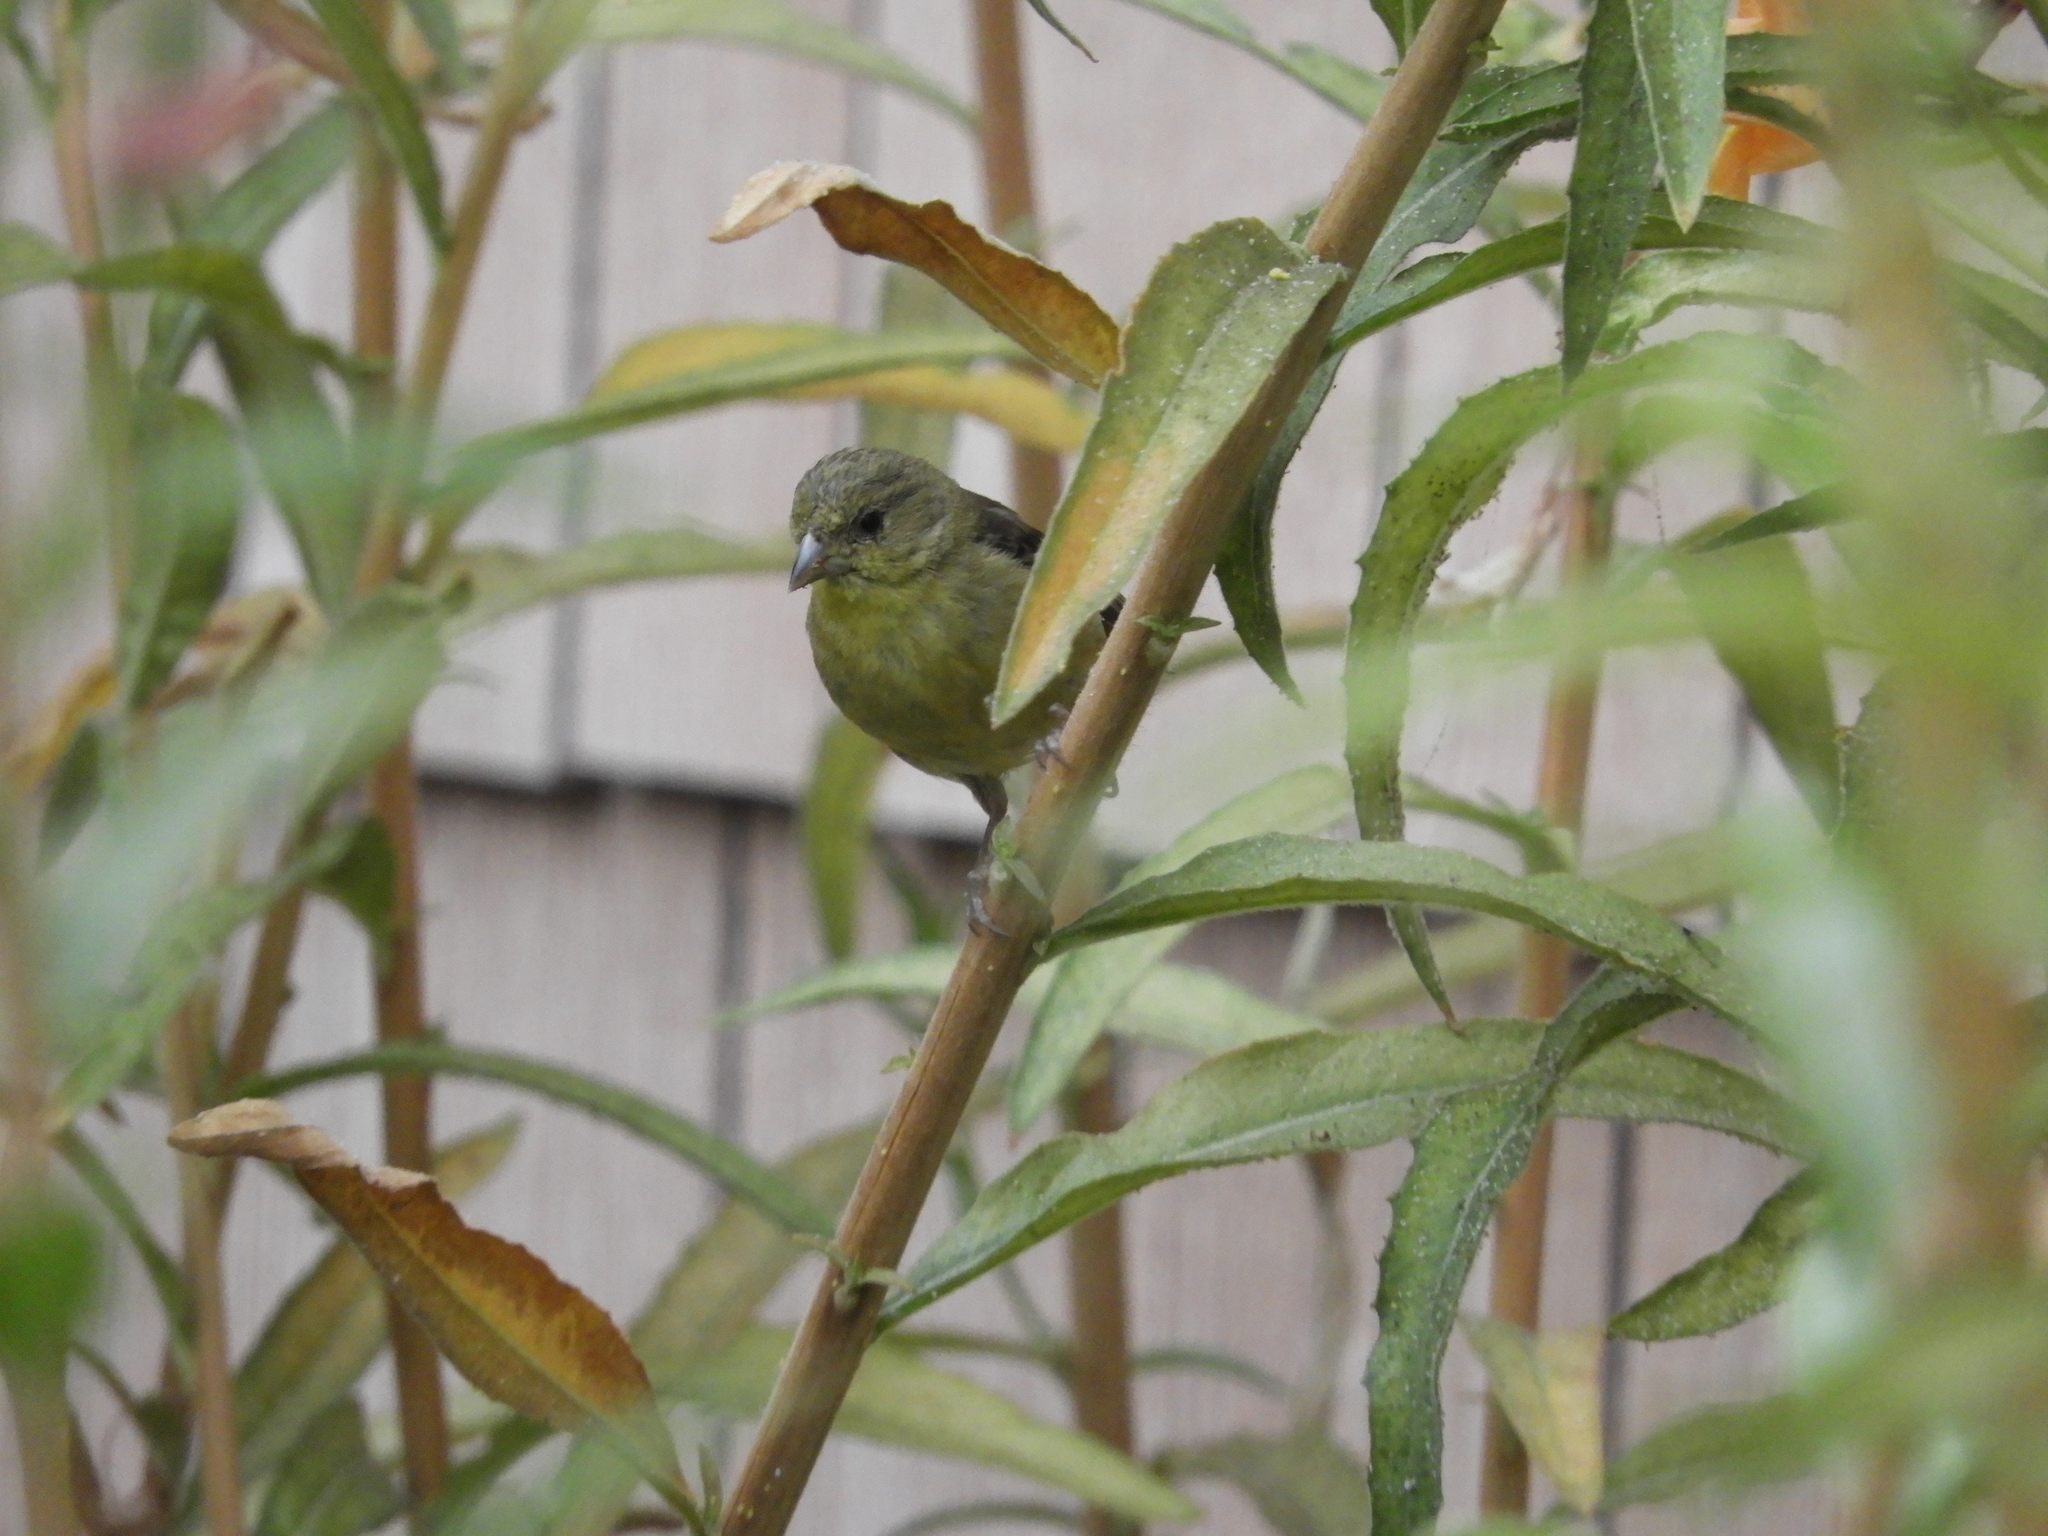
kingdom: Animalia
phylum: Chordata
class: Aves
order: Passeriformes
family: Fringillidae
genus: Spinus
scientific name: Spinus psaltria
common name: Lesser goldfinch
